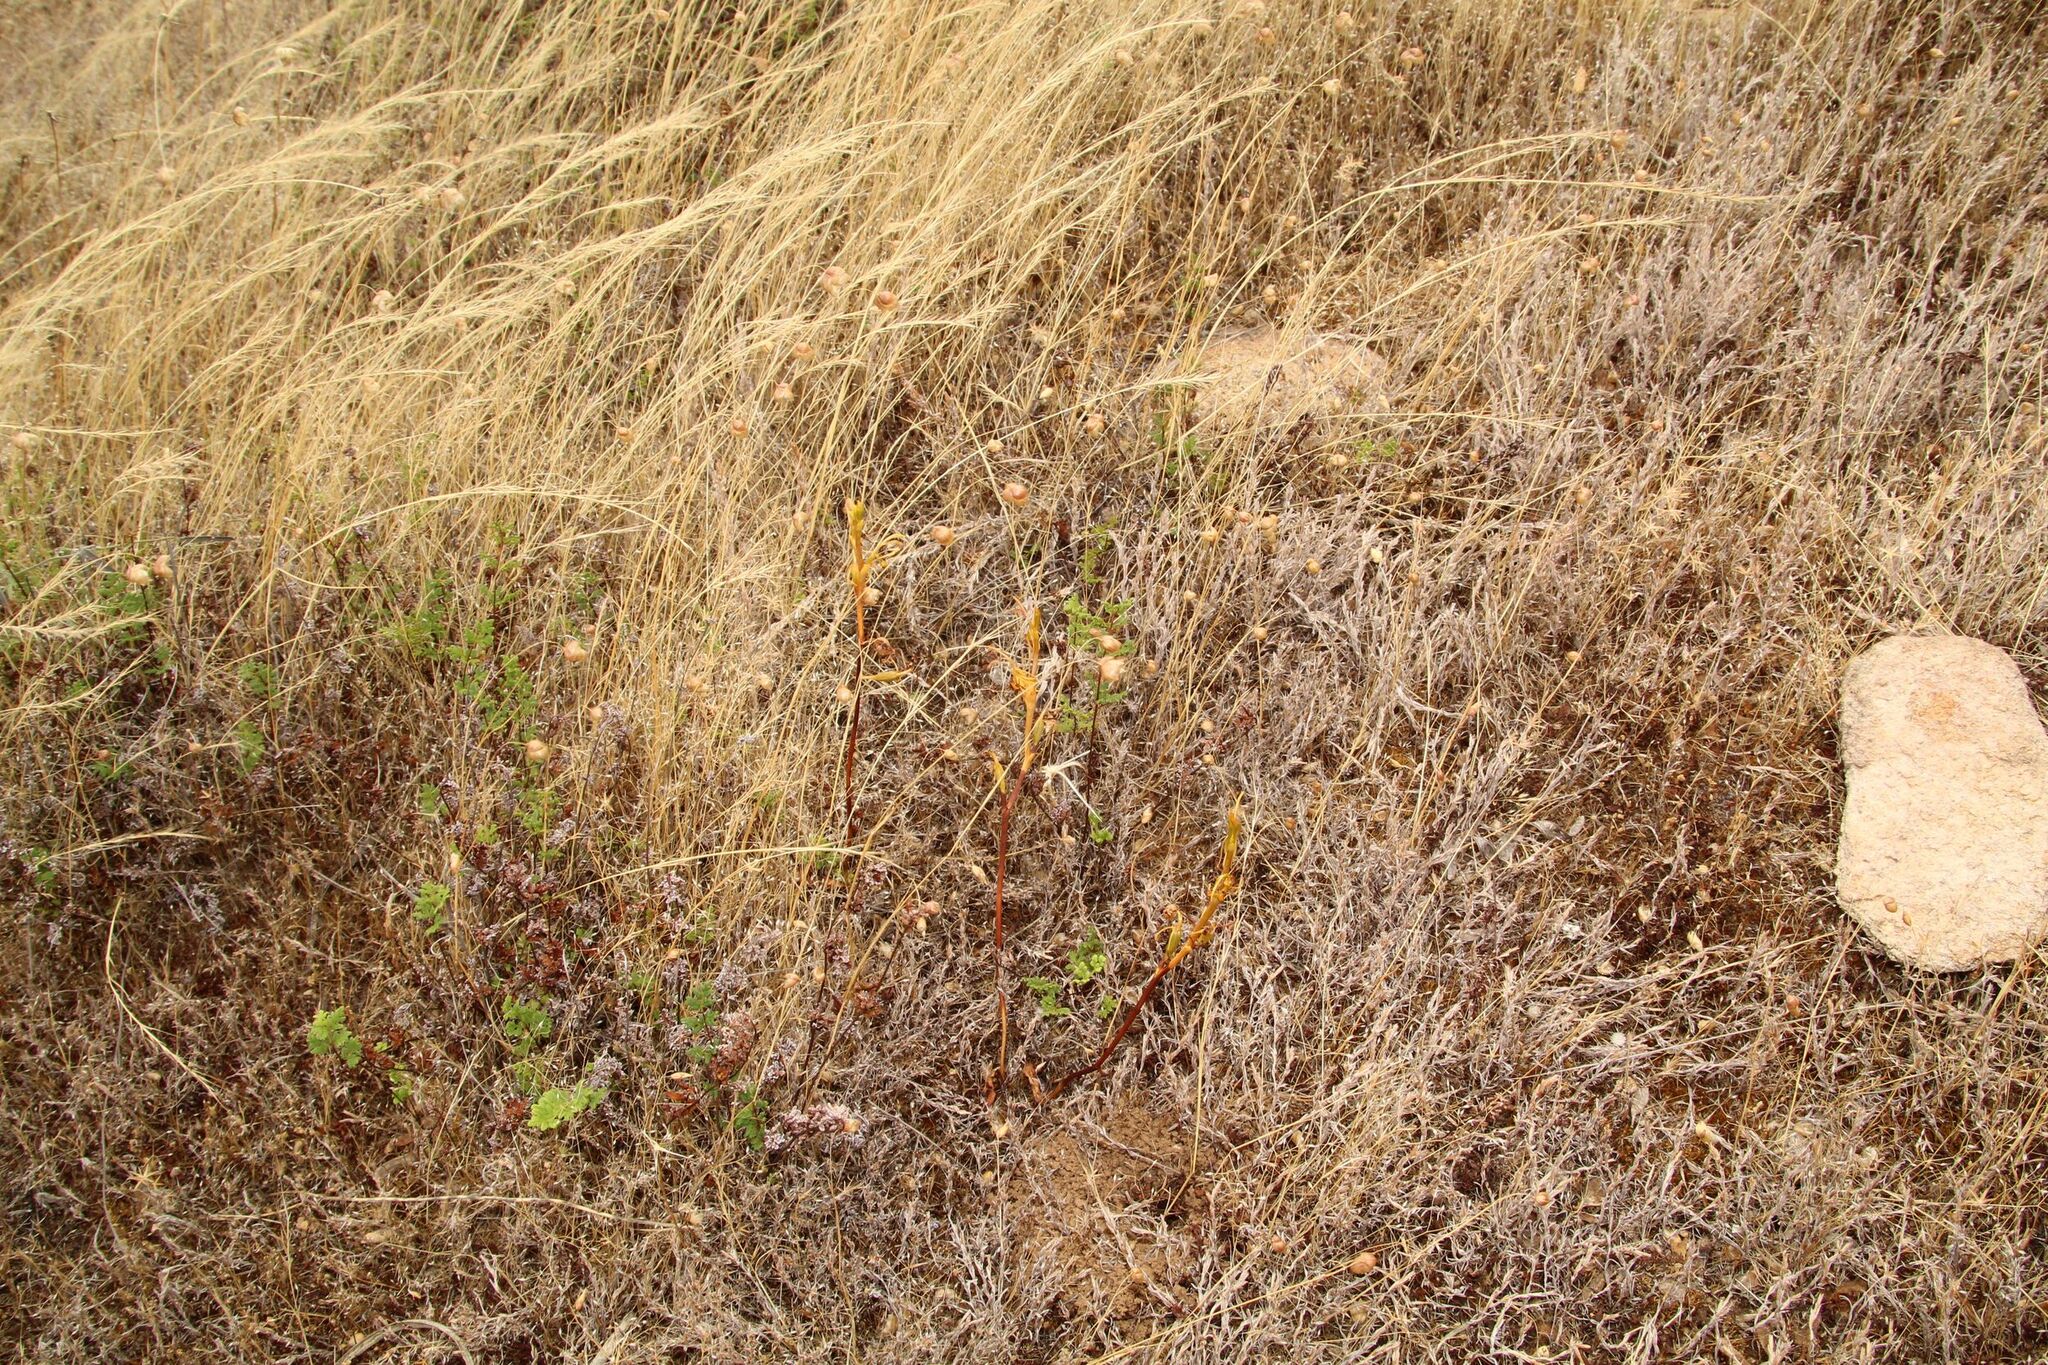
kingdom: Plantae
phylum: Tracheophyta
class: Liliopsida
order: Asparagales
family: Orchidaceae
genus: Spiculaea
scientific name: Spiculaea ciliata
